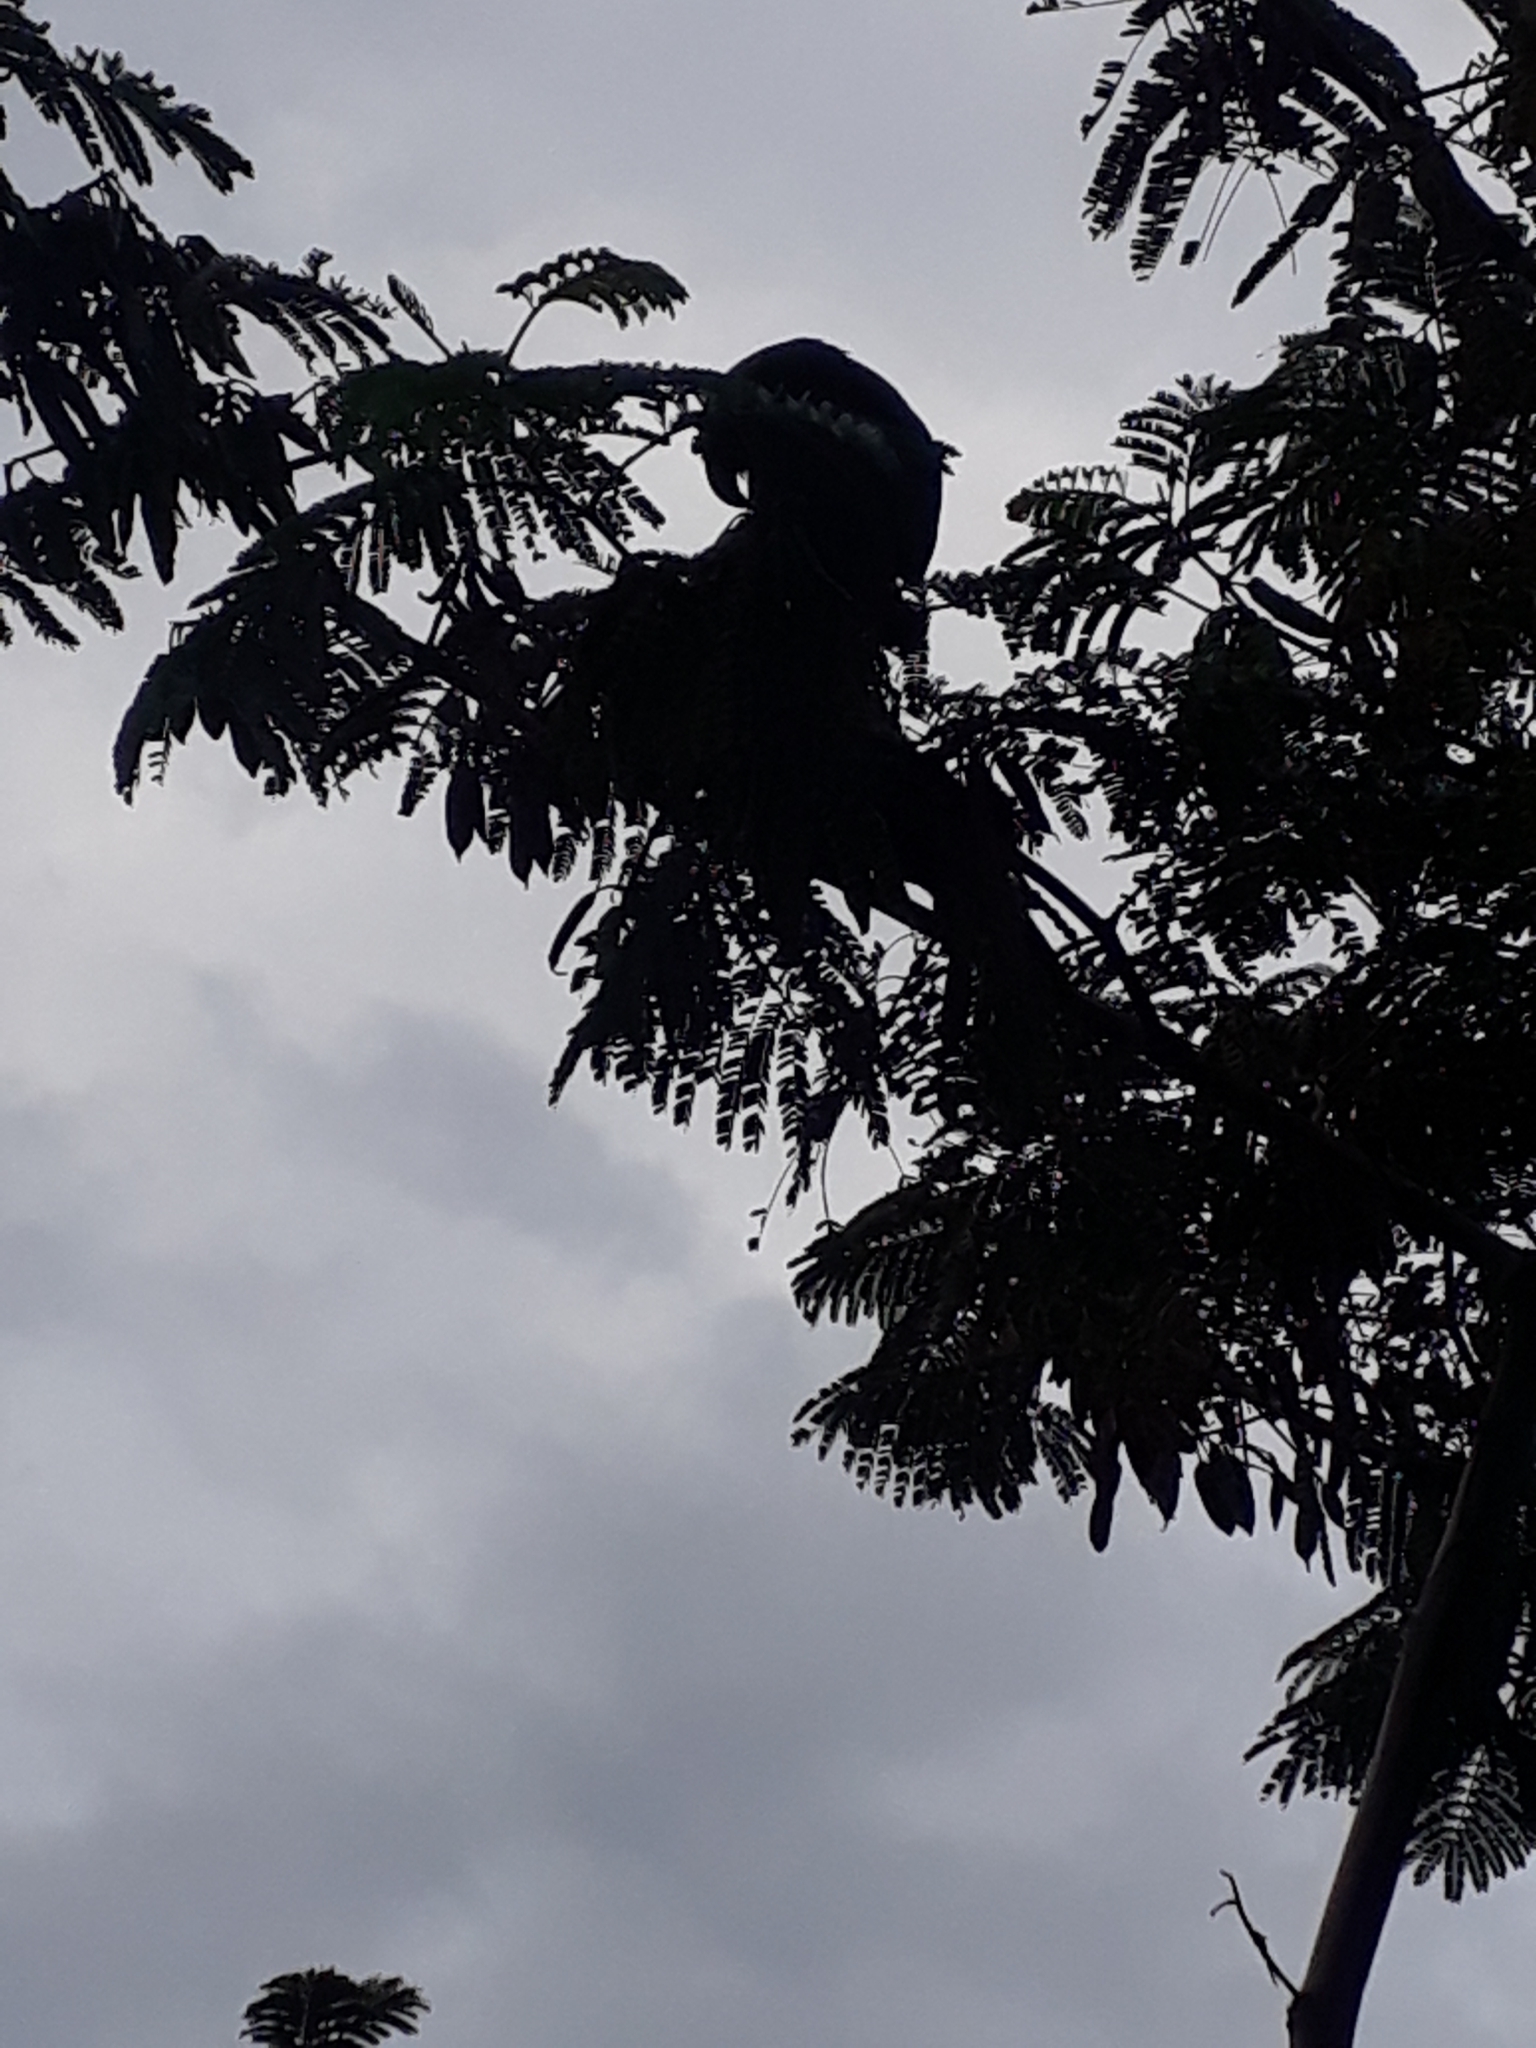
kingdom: Animalia
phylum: Chordata
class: Aves
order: Psittaciformes
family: Psittacidae
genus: Nestor
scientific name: Nestor meridionalis
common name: New zealand kaka
